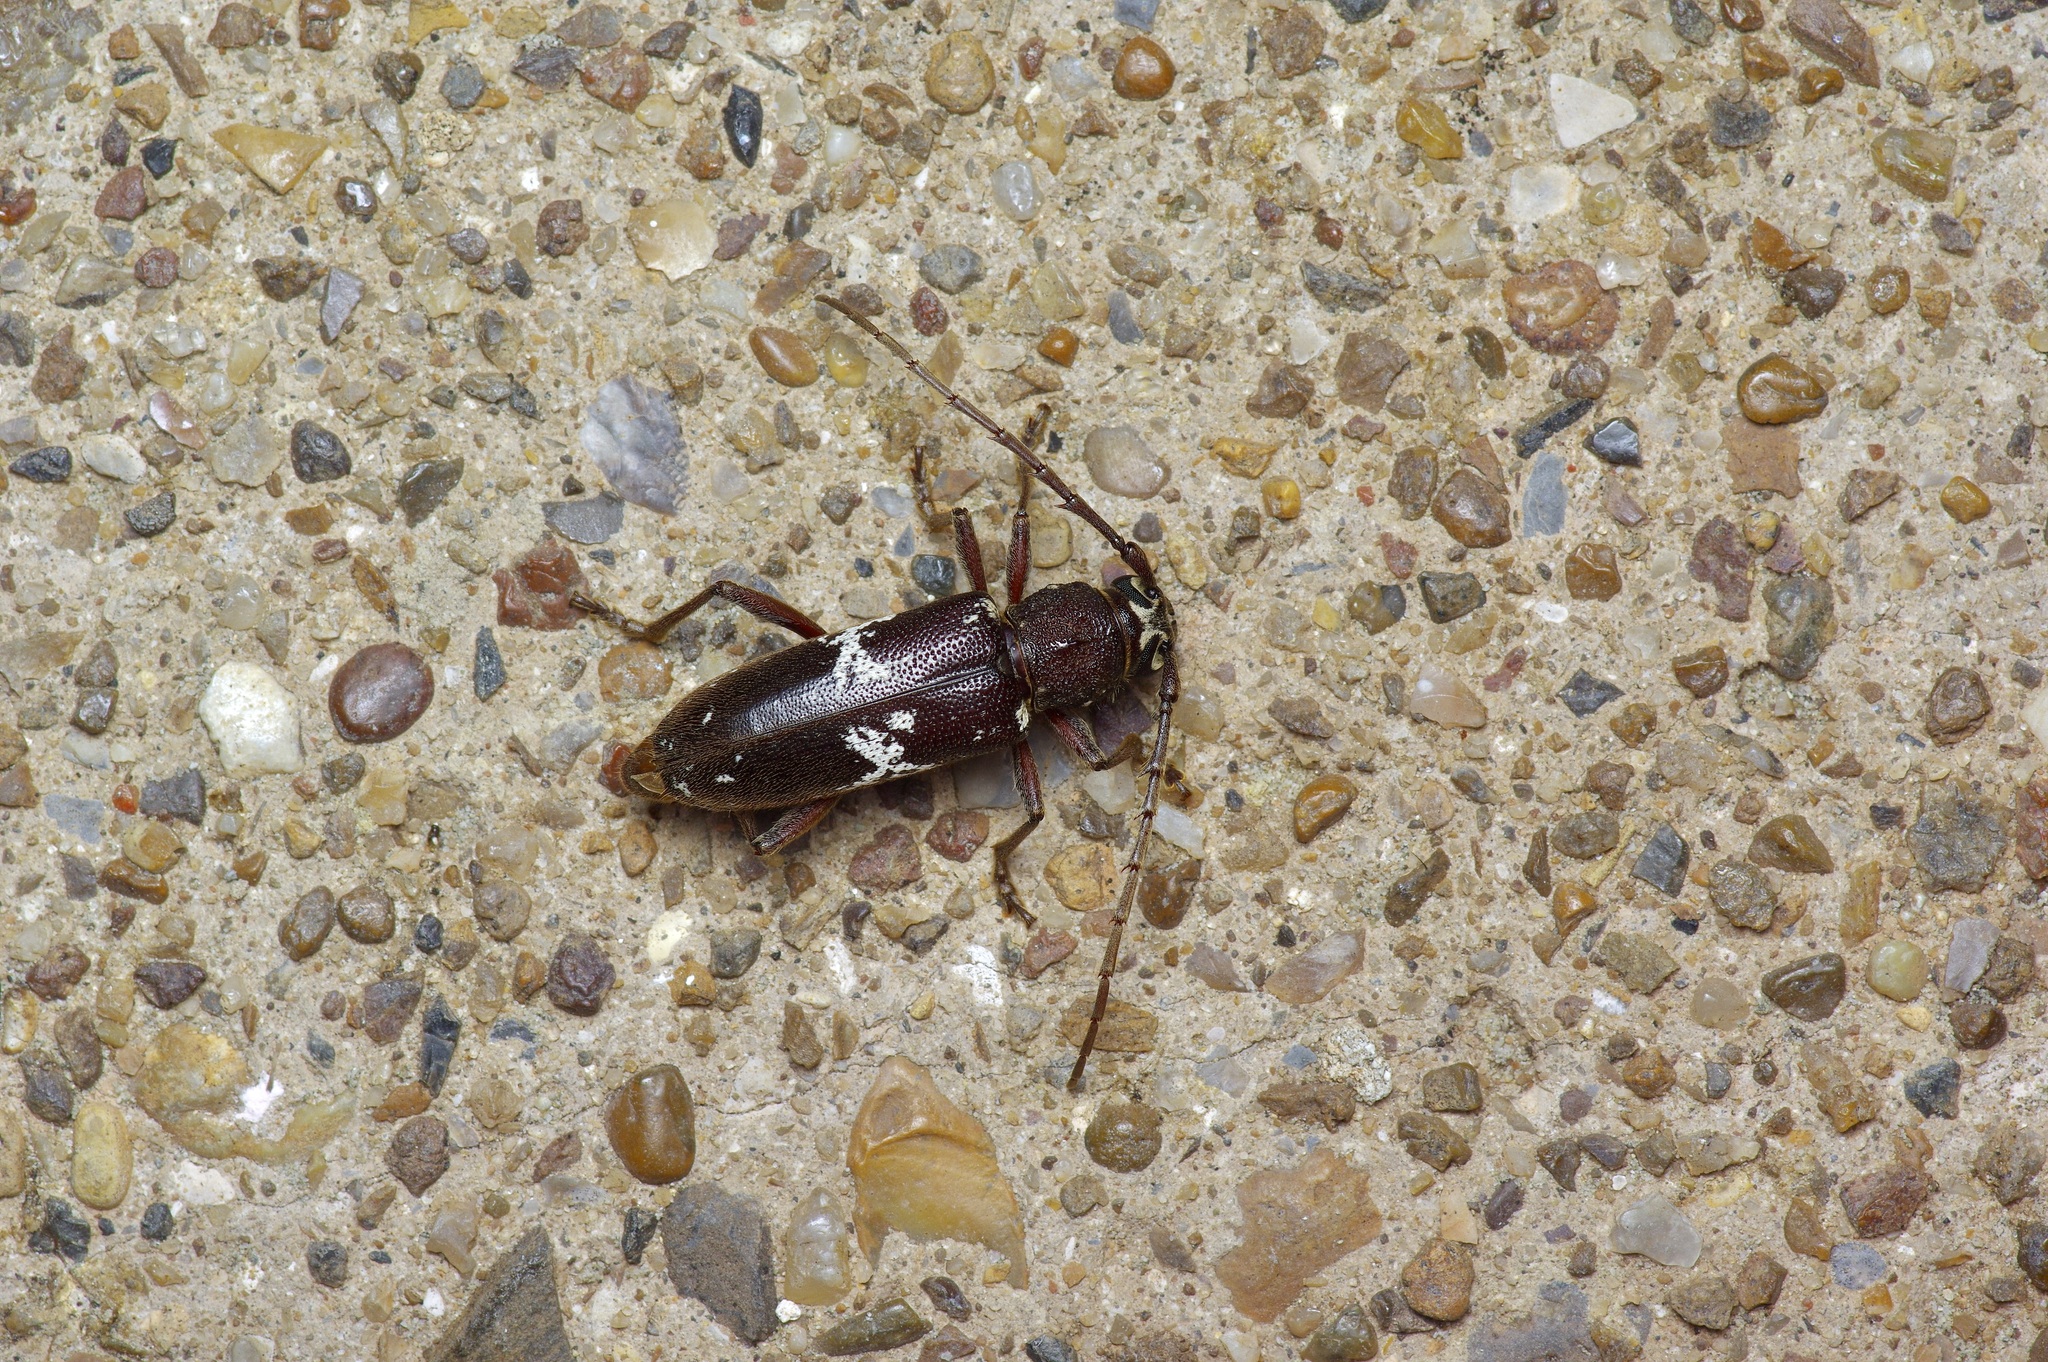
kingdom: Animalia
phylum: Arthropoda
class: Insecta
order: Coleoptera
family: Cerambycidae
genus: Enaphalodes
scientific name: Enaphalodes taeniatus
